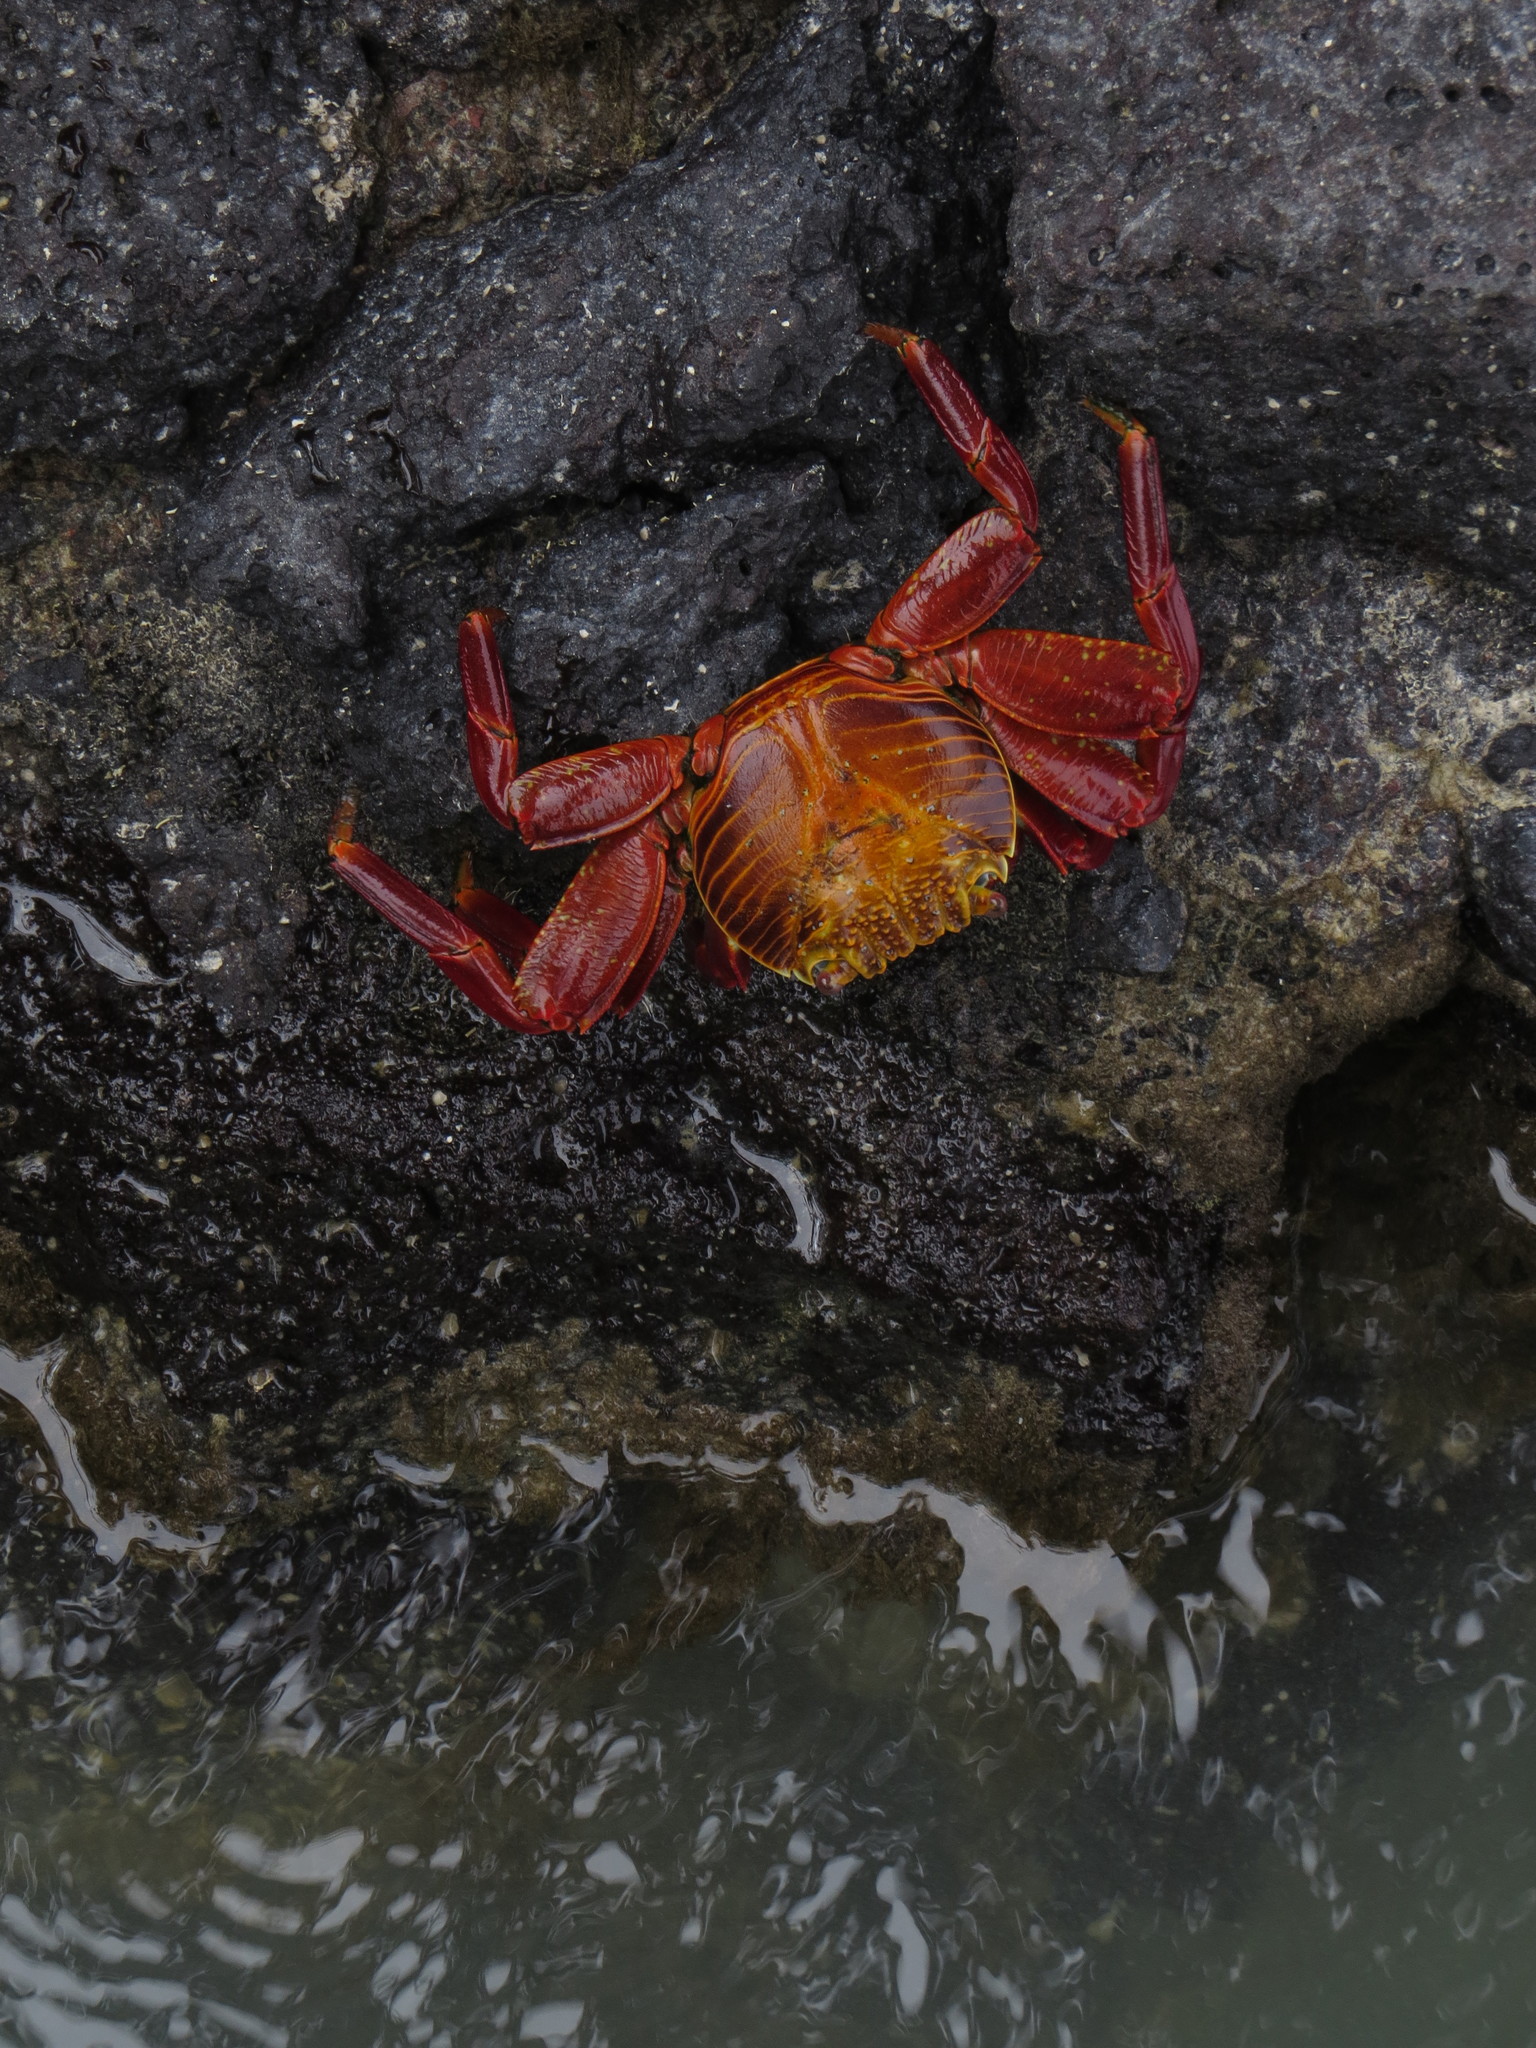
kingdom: Animalia
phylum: Arthropoda
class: Malacostraca
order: Decapoda
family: Grapsidae
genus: Grapsus
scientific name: Grapsus grapsus
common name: Sally lightfoot
